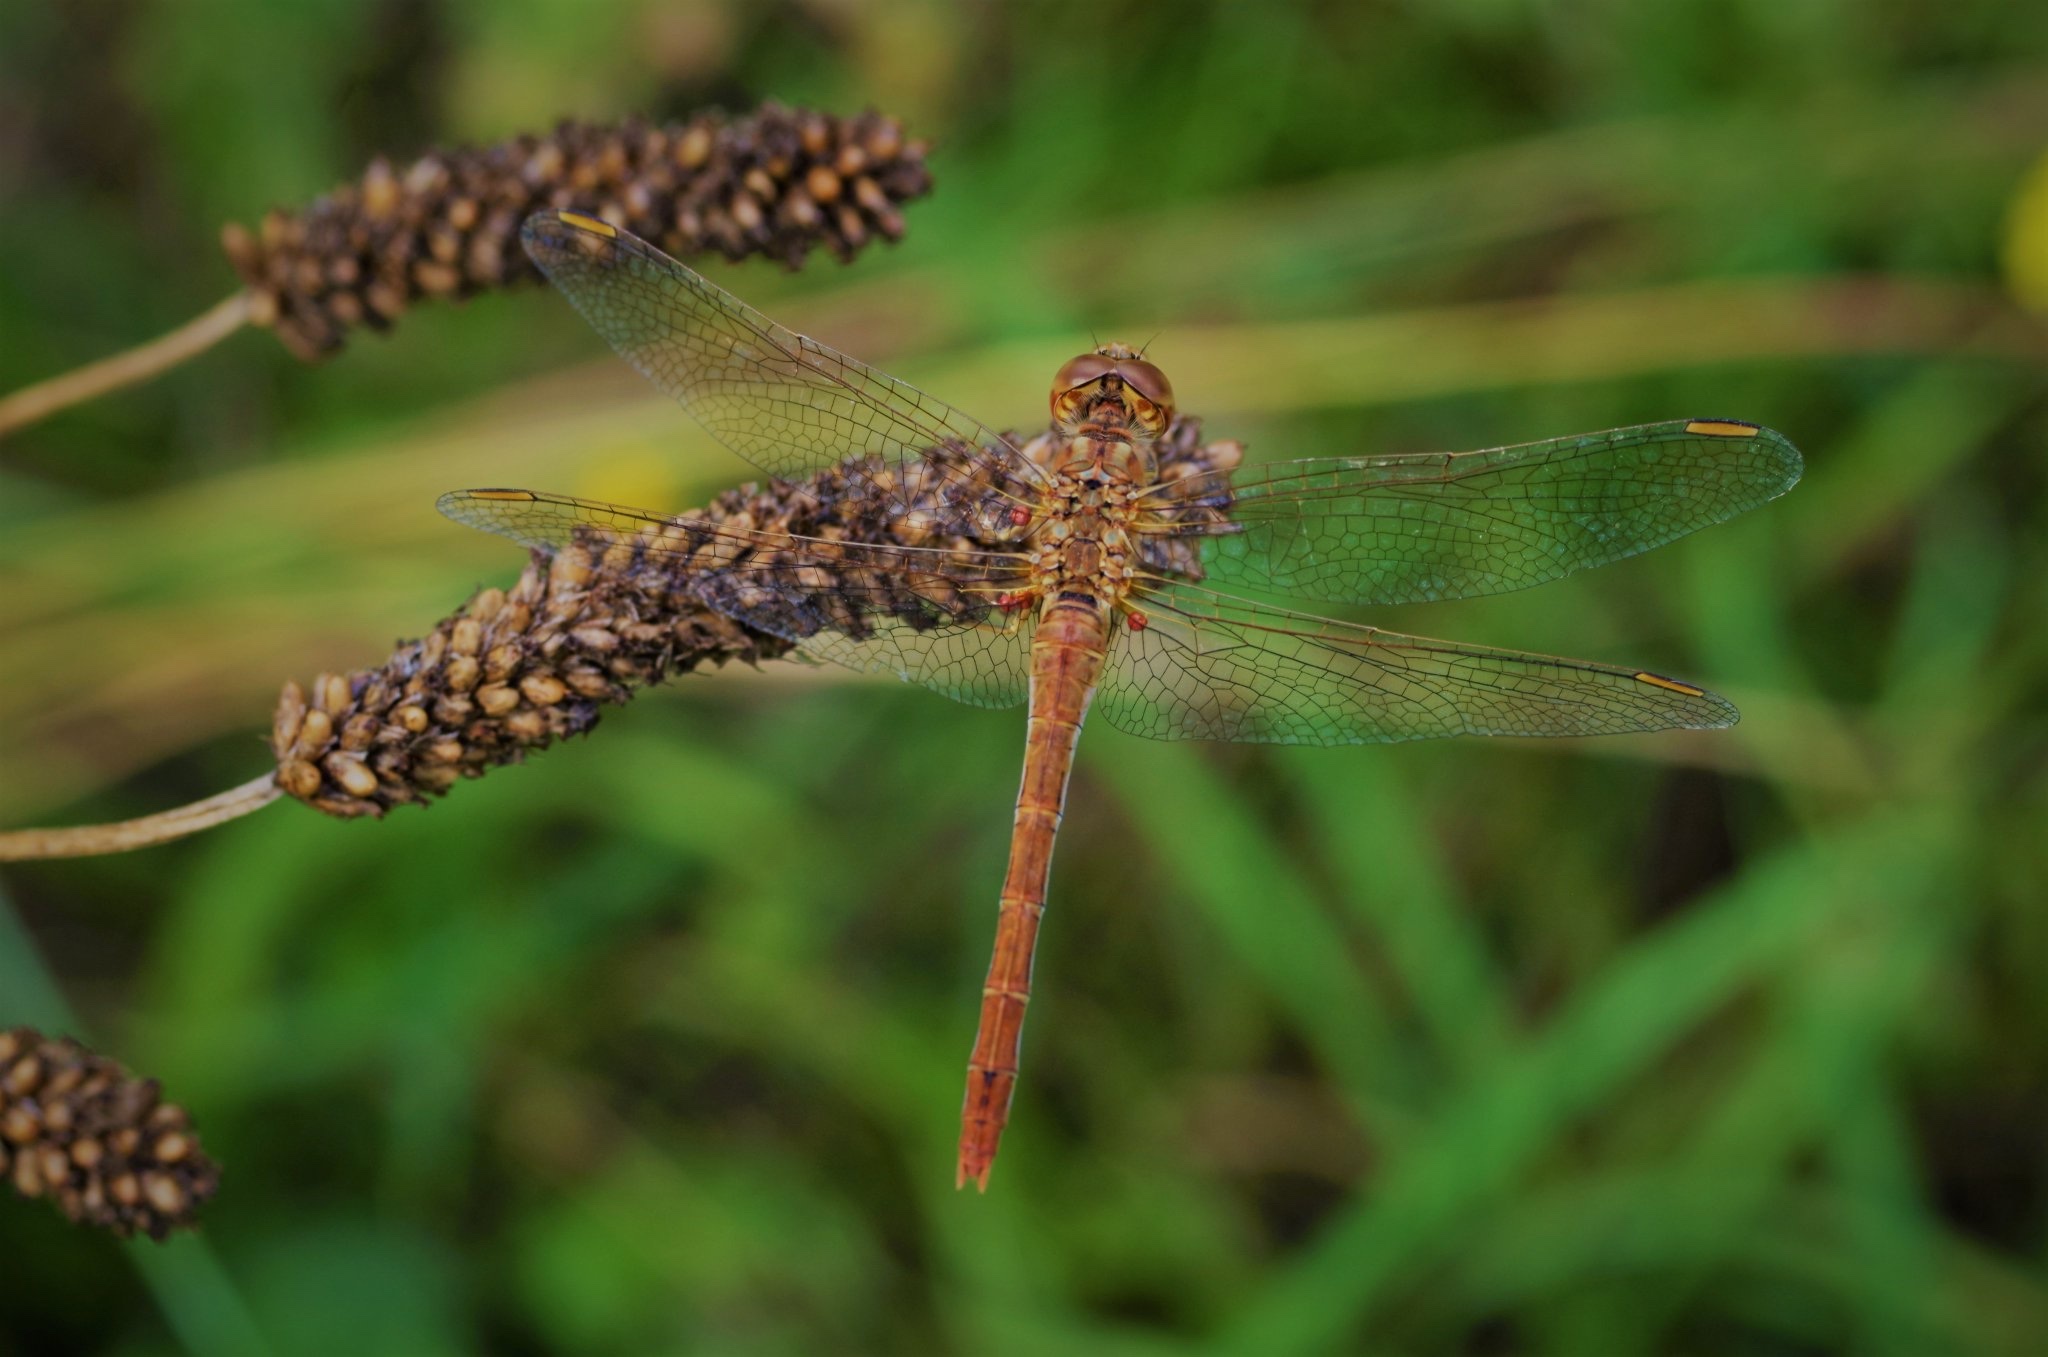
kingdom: Animalia
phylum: Arthropoda
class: Insecta
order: Odonata
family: Libellulidae
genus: Sympetrum
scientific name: Sympetrum meridionale
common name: Southern darter
